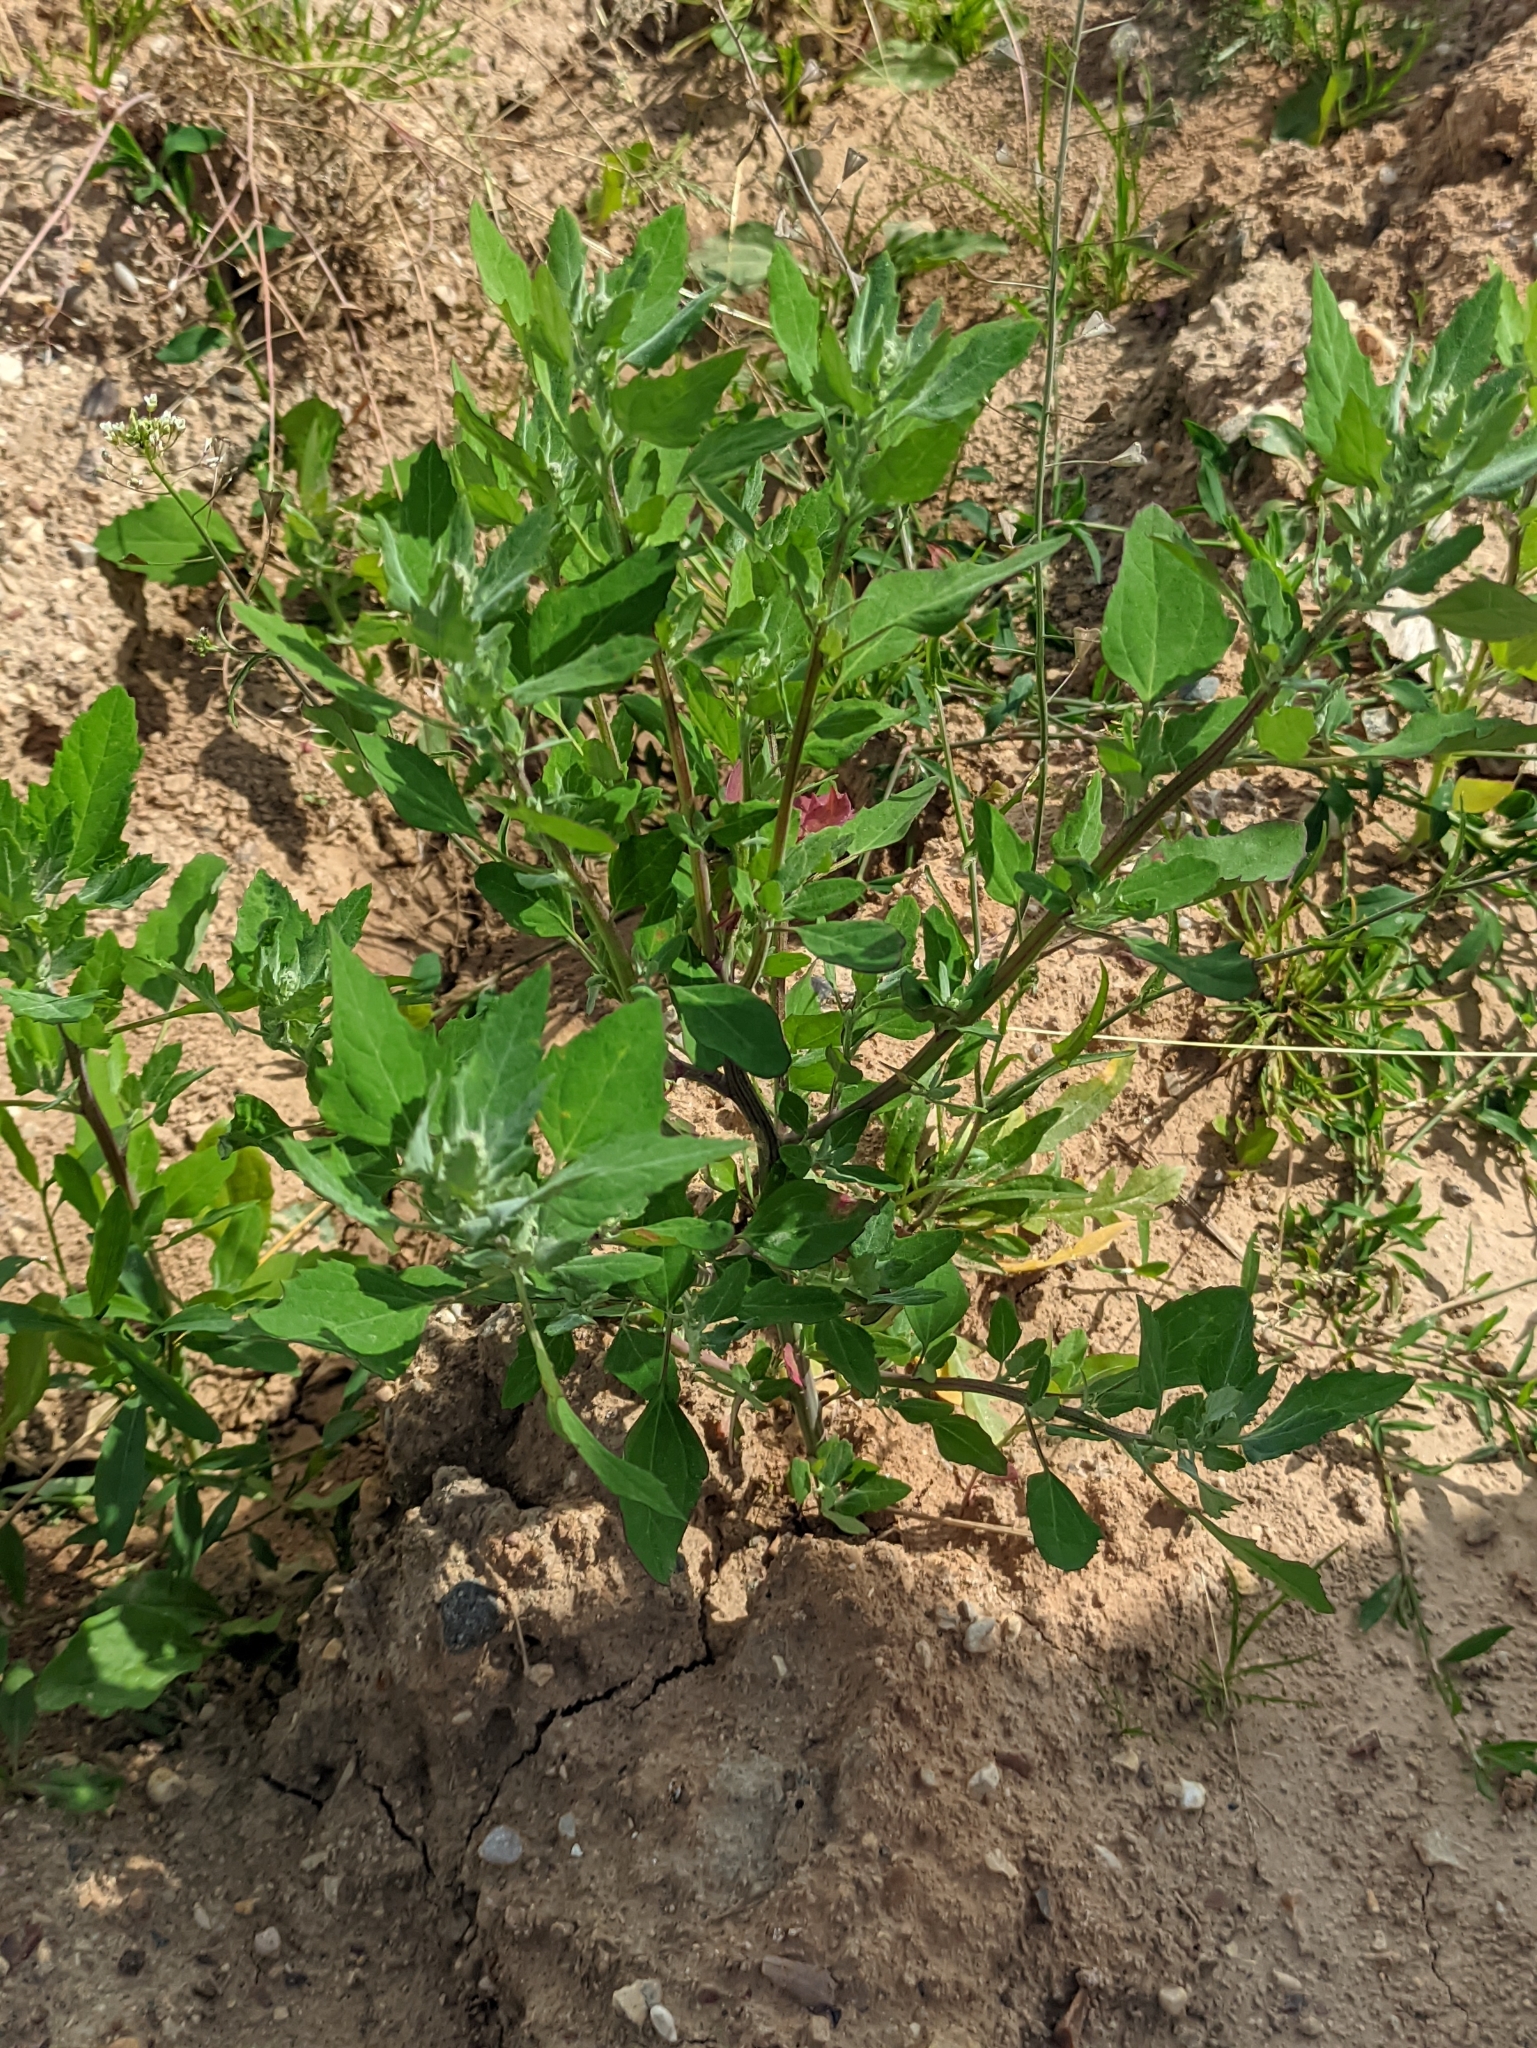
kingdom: Plantae
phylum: Tracheophyta
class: Magnoliopsida
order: Caryophyllales
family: Amaranthaceae
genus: Chenopodium
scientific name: Chenopodium album
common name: Fat-hen
